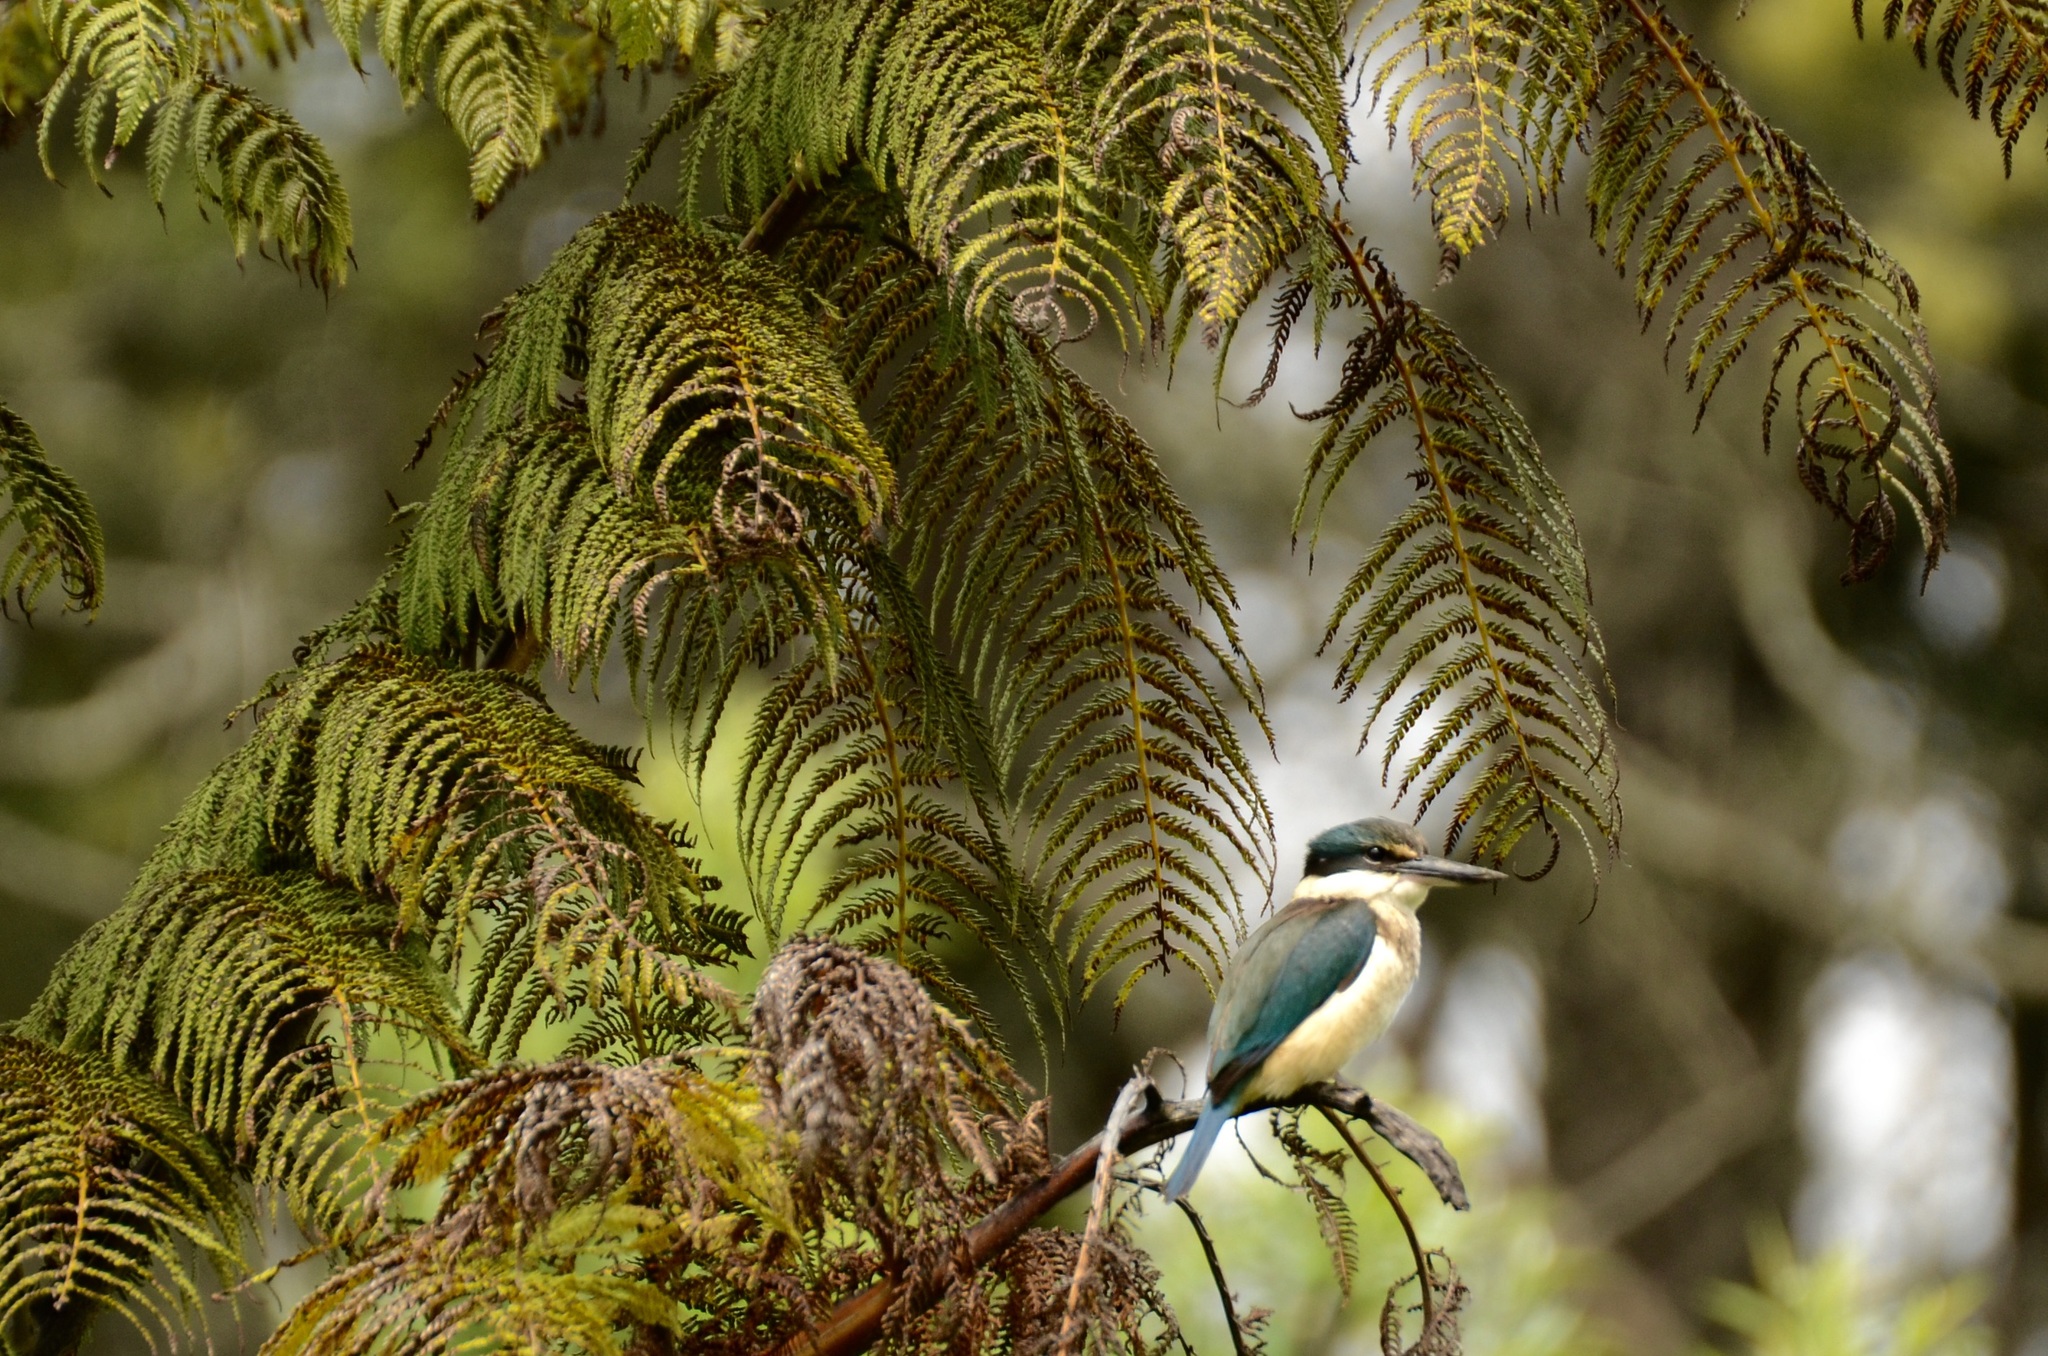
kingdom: Animalia
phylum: Chordata
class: Aves
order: Coraciiformes
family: Alcedinidae
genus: Todiramphus
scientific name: Todiramphus sanctus
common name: Sacred kingfisher
